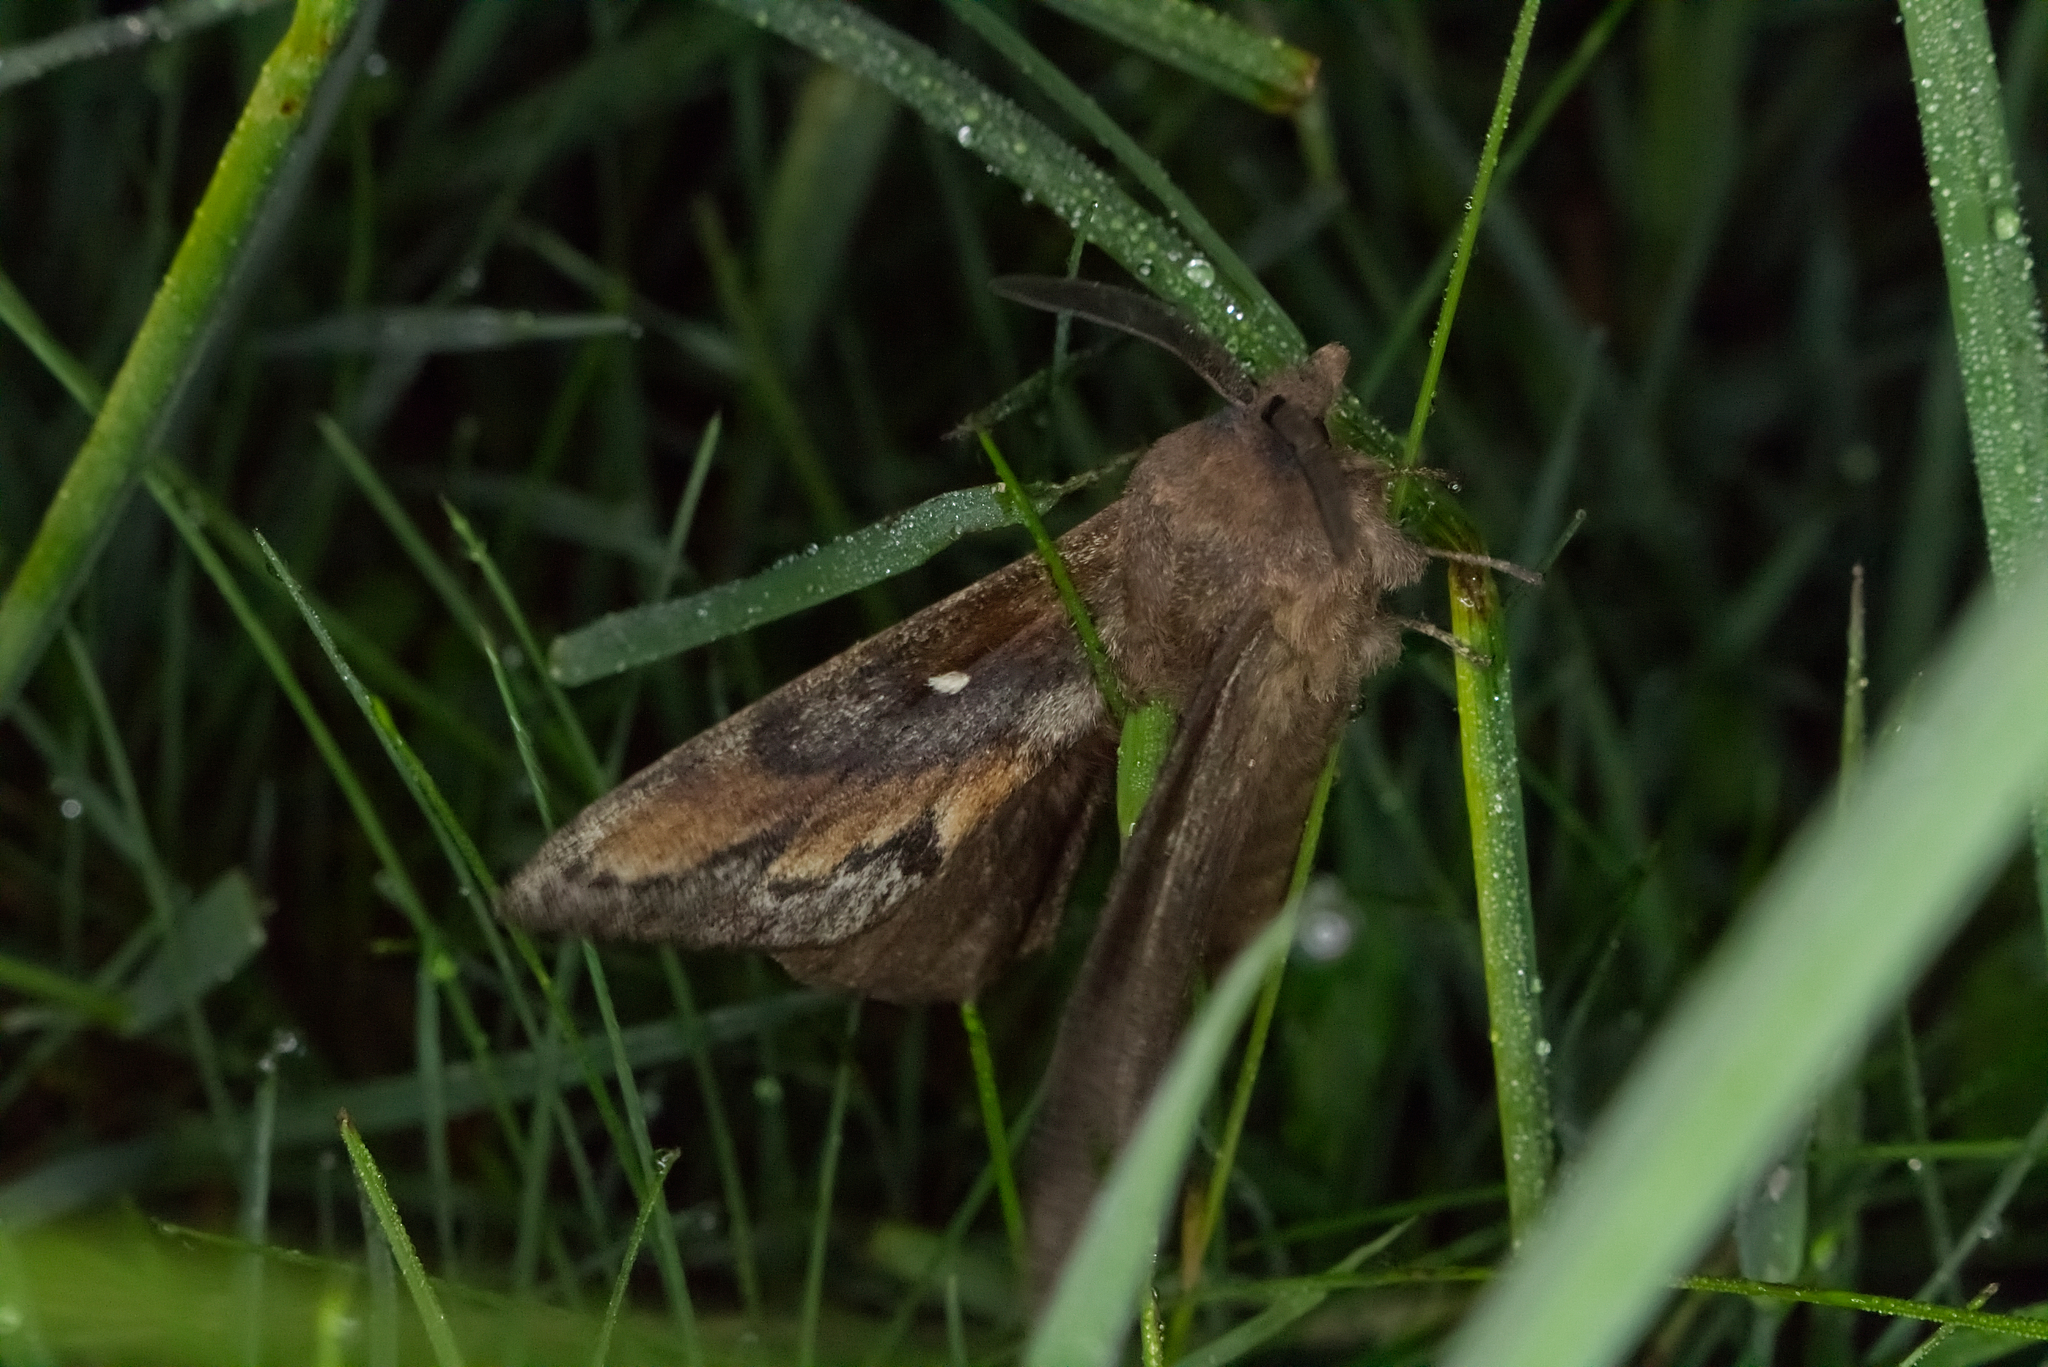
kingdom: Animalia
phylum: Arthropoda
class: Insecta
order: Lepidoptera
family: Lasiocampidae
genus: Dendrolimus
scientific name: Dendrolimus pini
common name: Pine-tree lappet
